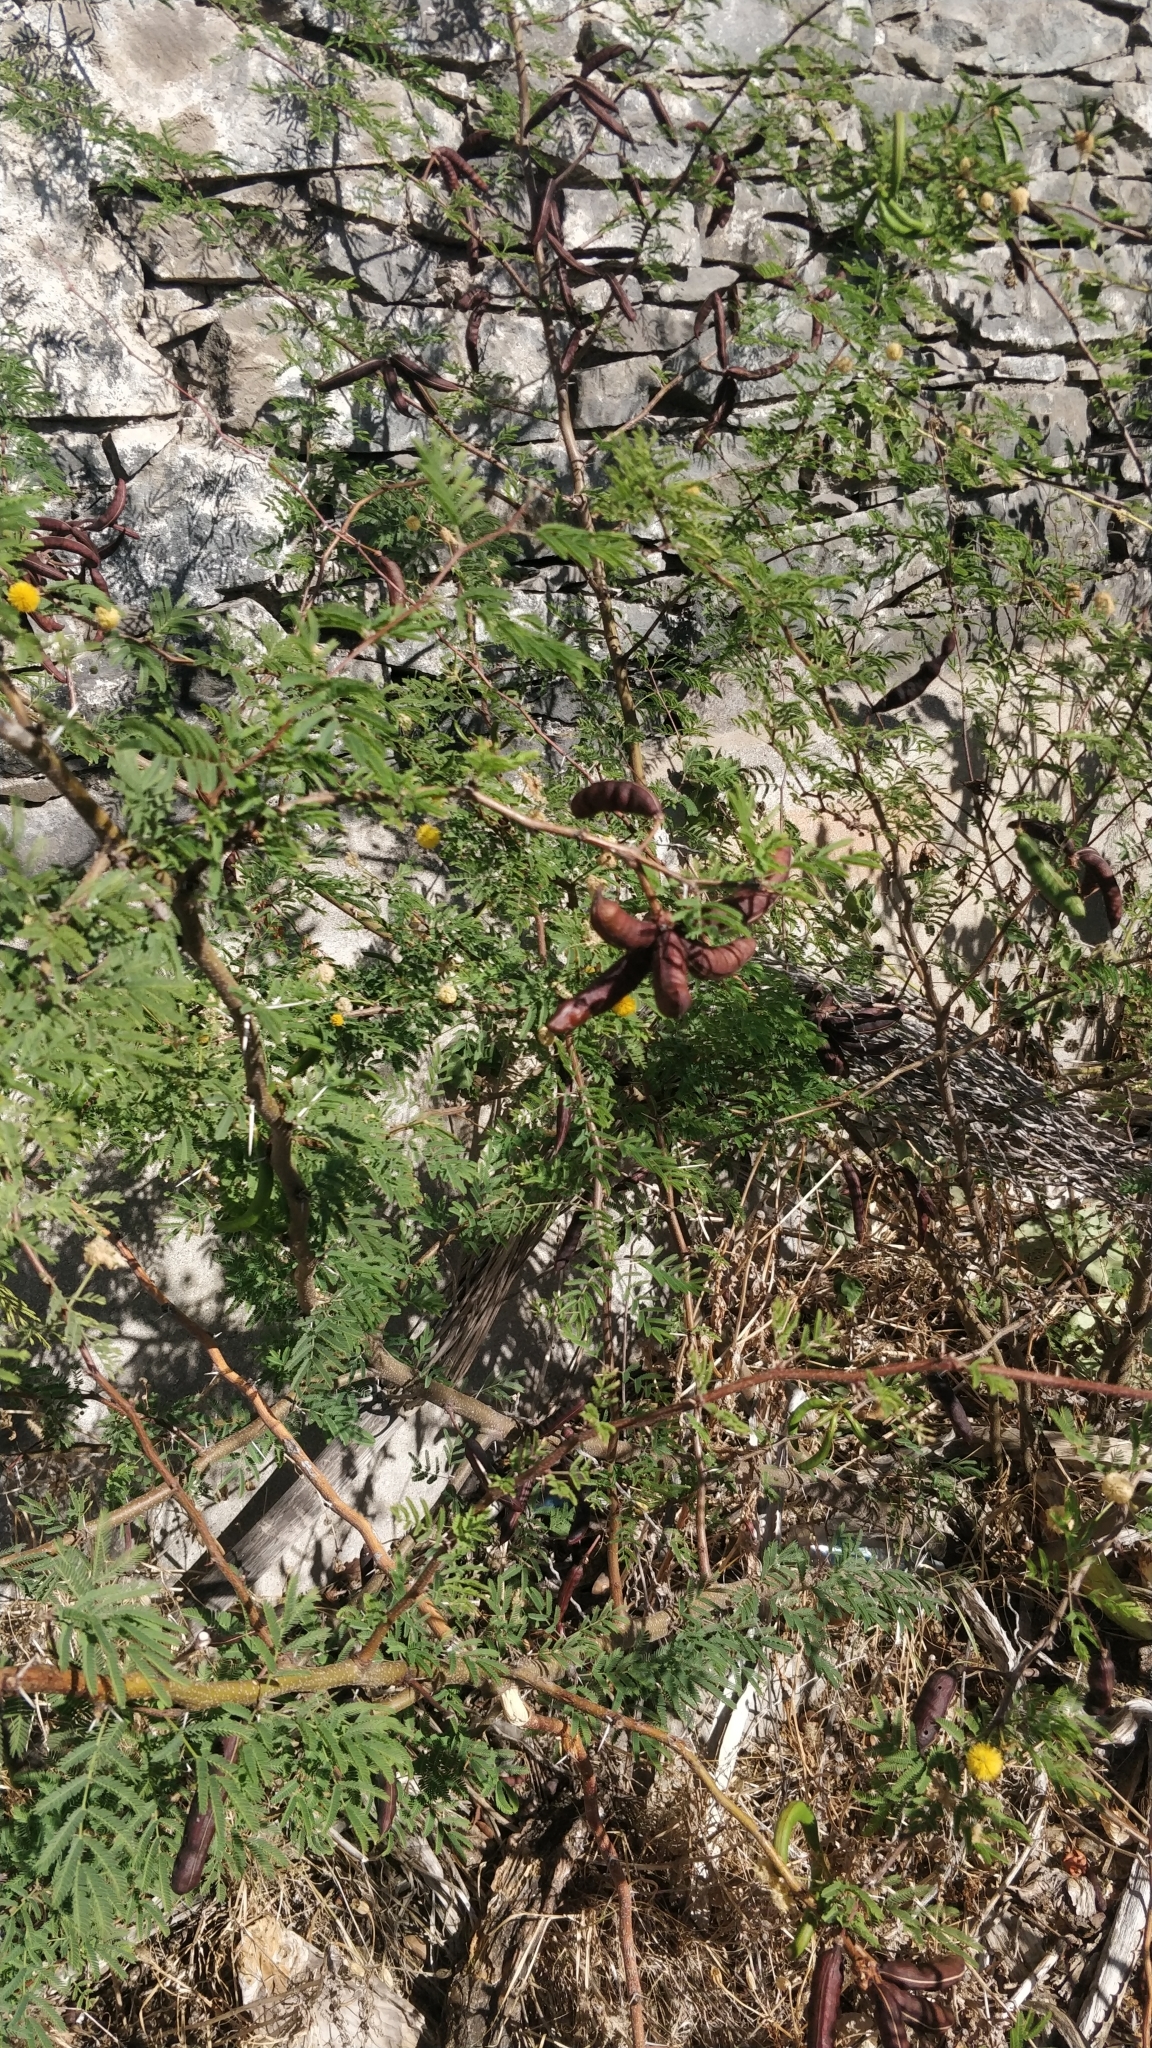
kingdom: Plantae
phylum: Tracheophyta
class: Magnoliopsida
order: Fabales
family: Fabaceae
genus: Vachellia
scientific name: Vachellia farnesiana
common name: Sweet acacia
